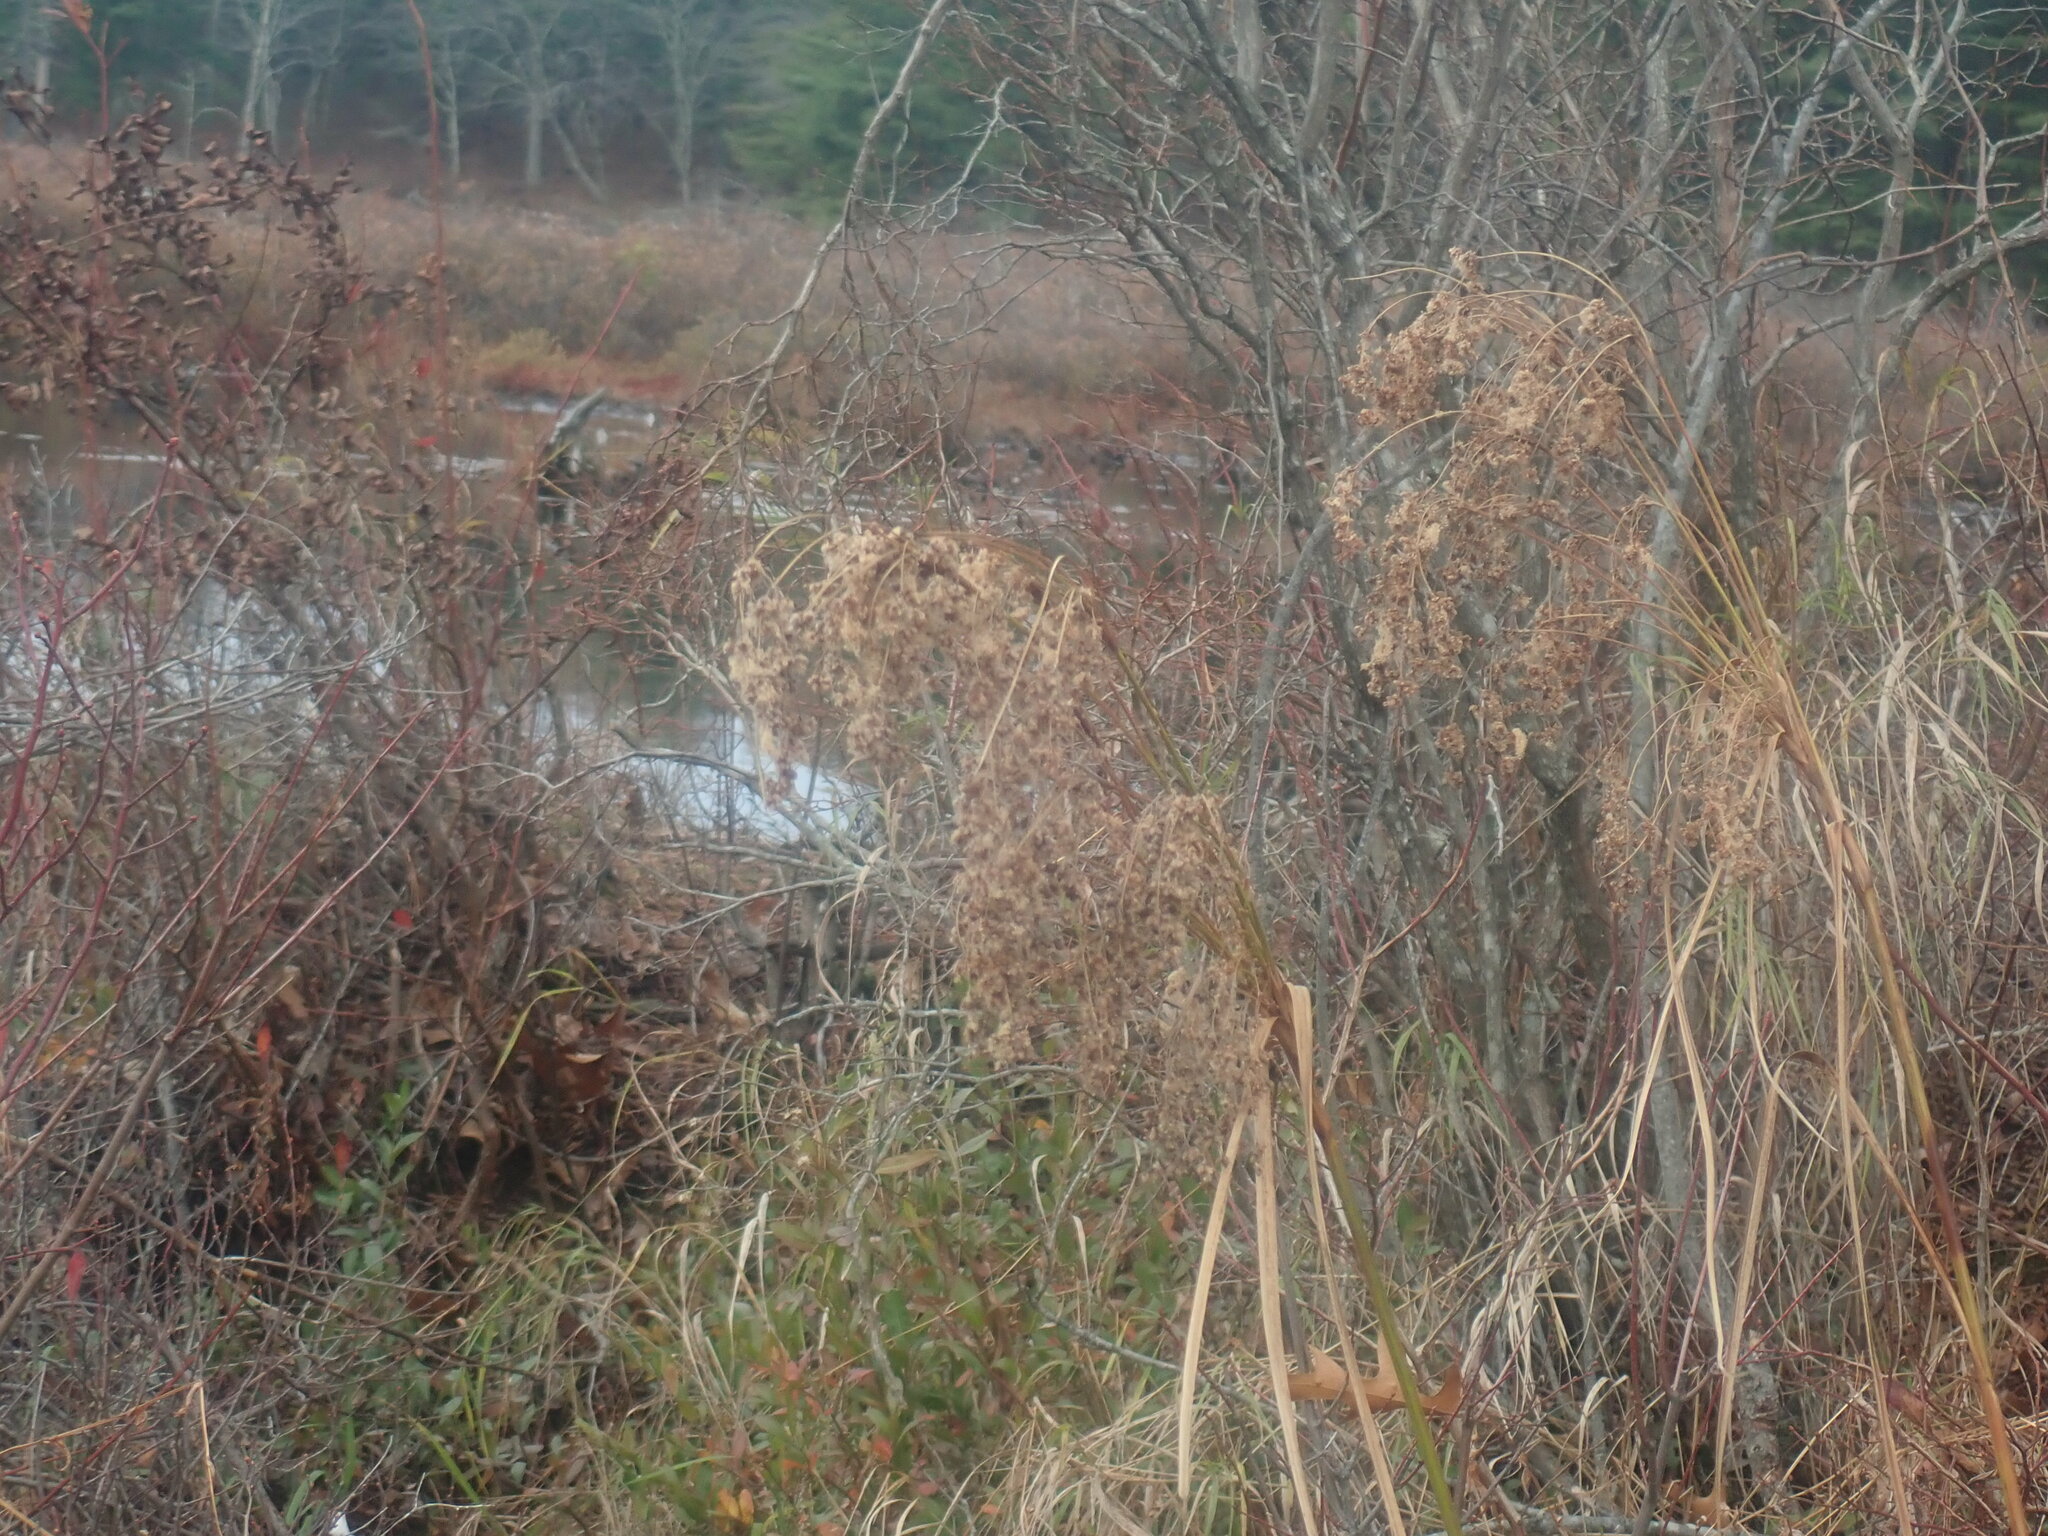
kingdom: Plantae
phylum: Tracheophyta
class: Liliopsida
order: Poales
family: Cyperaceae
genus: Scirpus
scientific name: Scirpus
